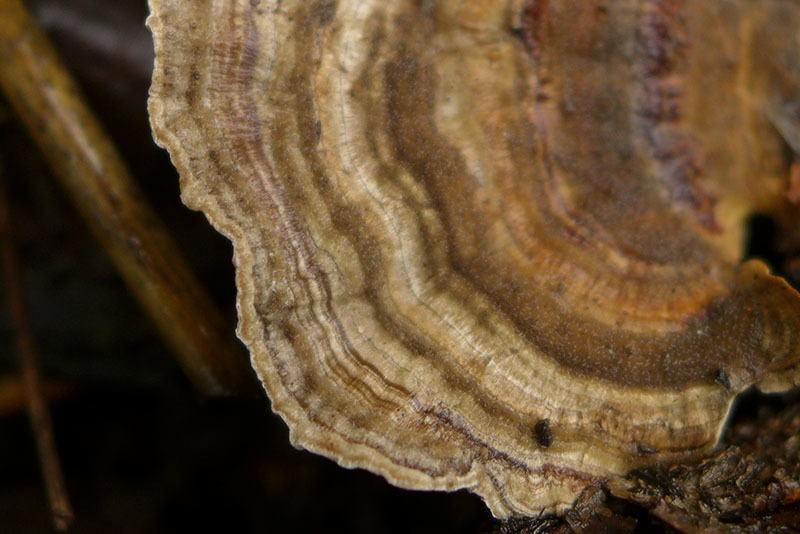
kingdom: Fungi
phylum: Basidiomycota
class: Agaricomycetes
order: Polyporales
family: Polyporaceae
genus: Trametes
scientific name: Trametes versicolor
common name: Turkeytail
